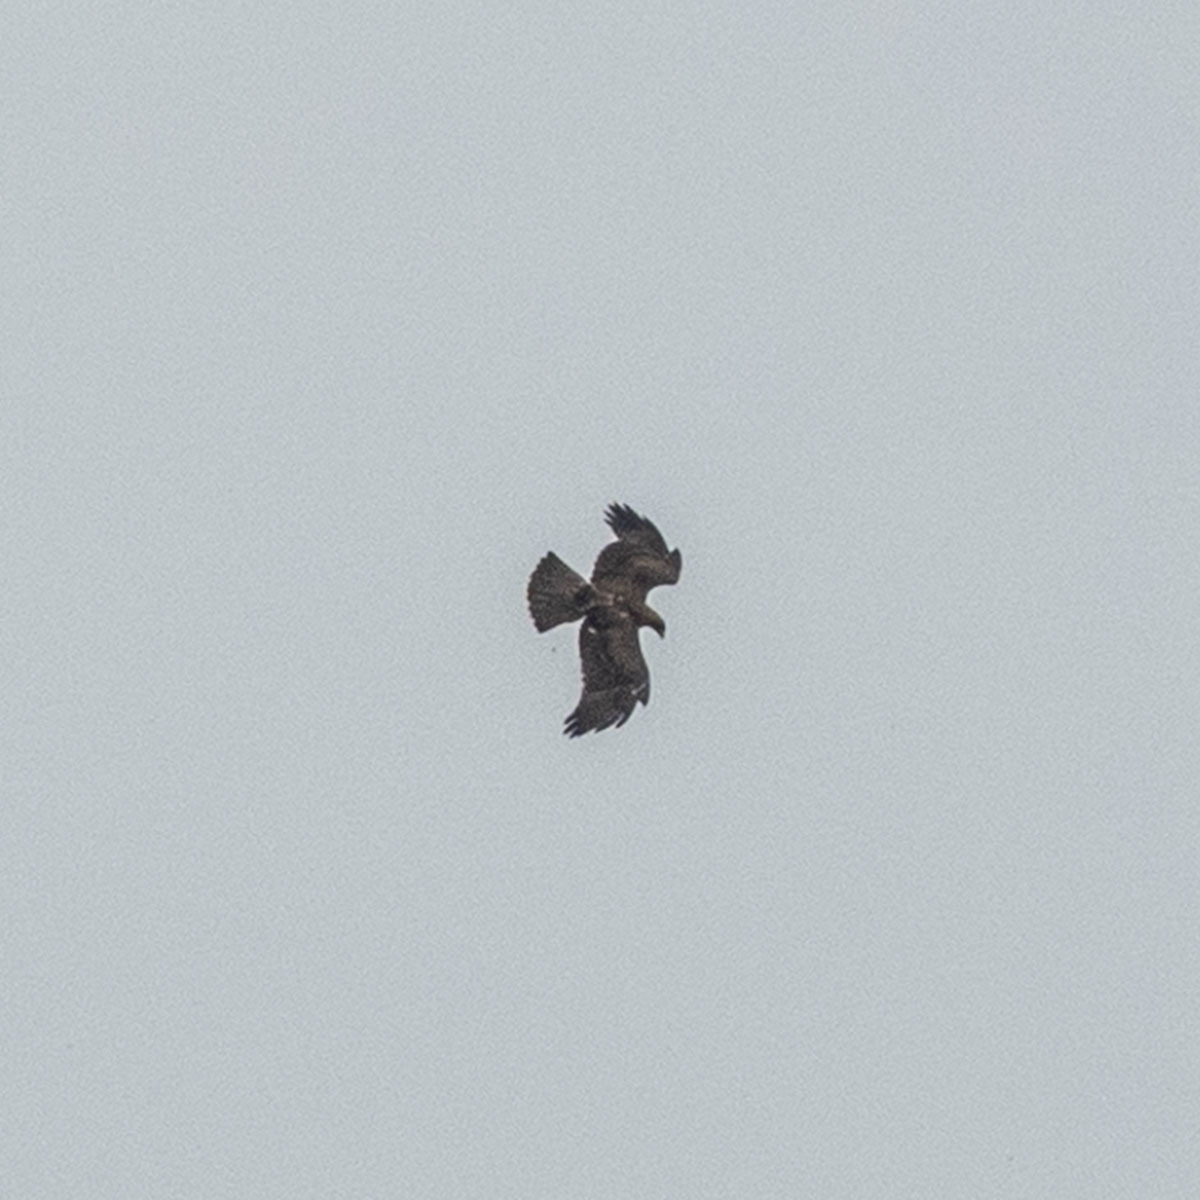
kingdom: Animalia
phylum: Chordata
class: Aves
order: Accipitriformes
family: Accipitridae
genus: Aquila
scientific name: Aquila hastata
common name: Indian spotted eagle
